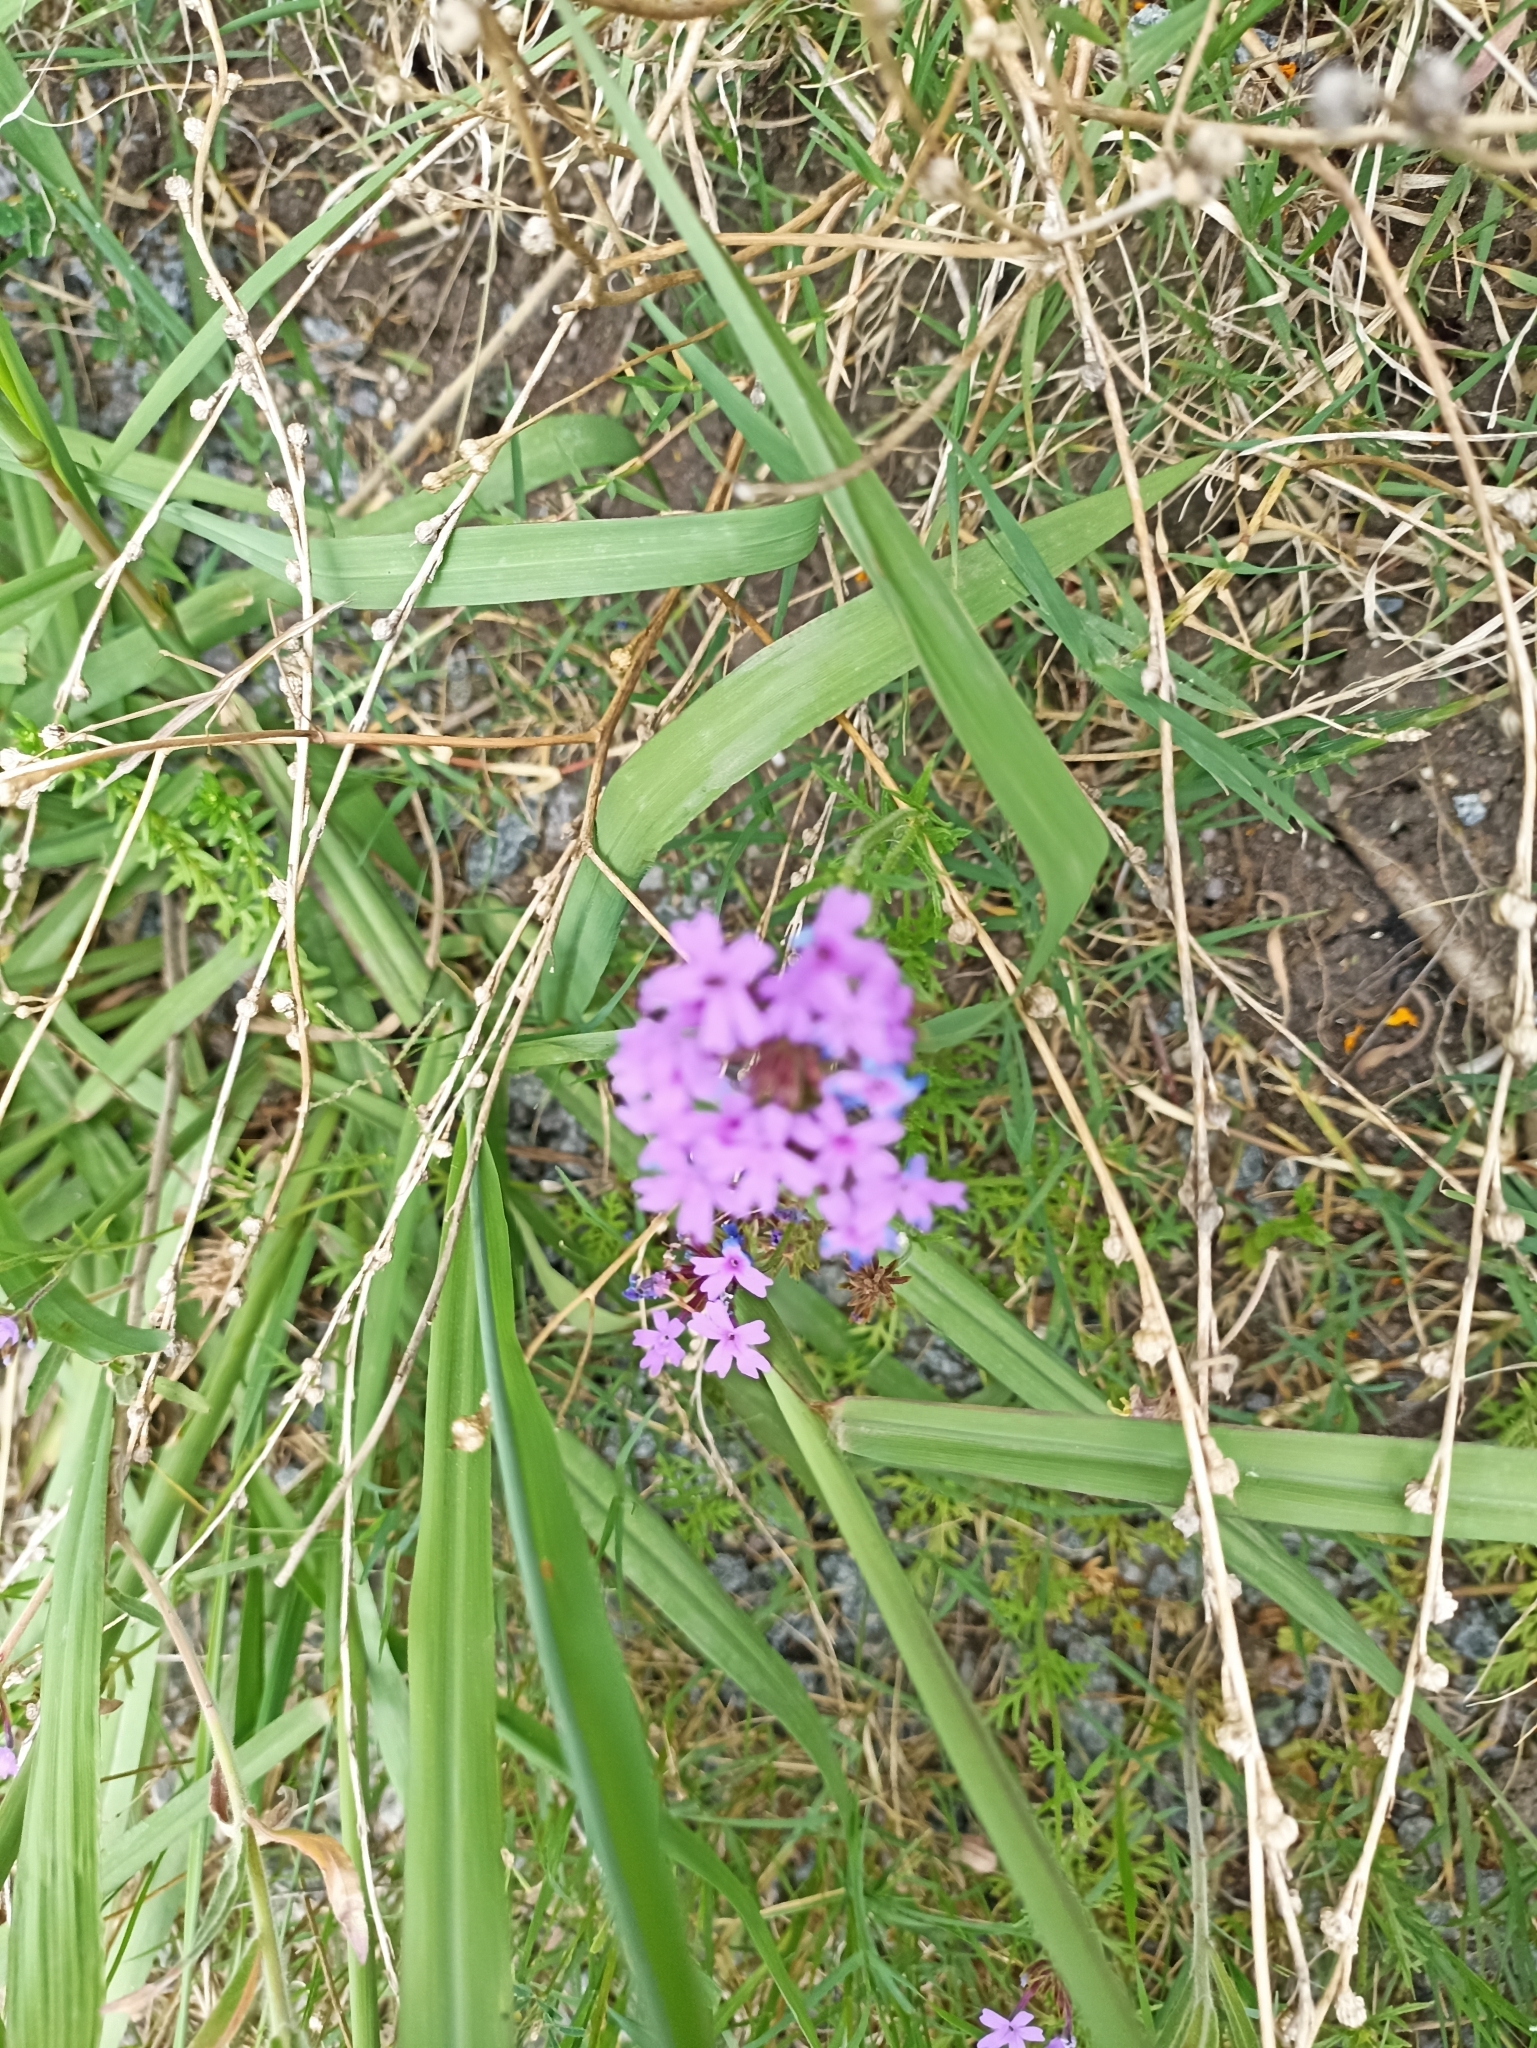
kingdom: Plantae
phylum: Tracheophyta
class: Magnoliopsida
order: Lamiales
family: Verbenaceae
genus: Verbena
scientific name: Verbena selloi
